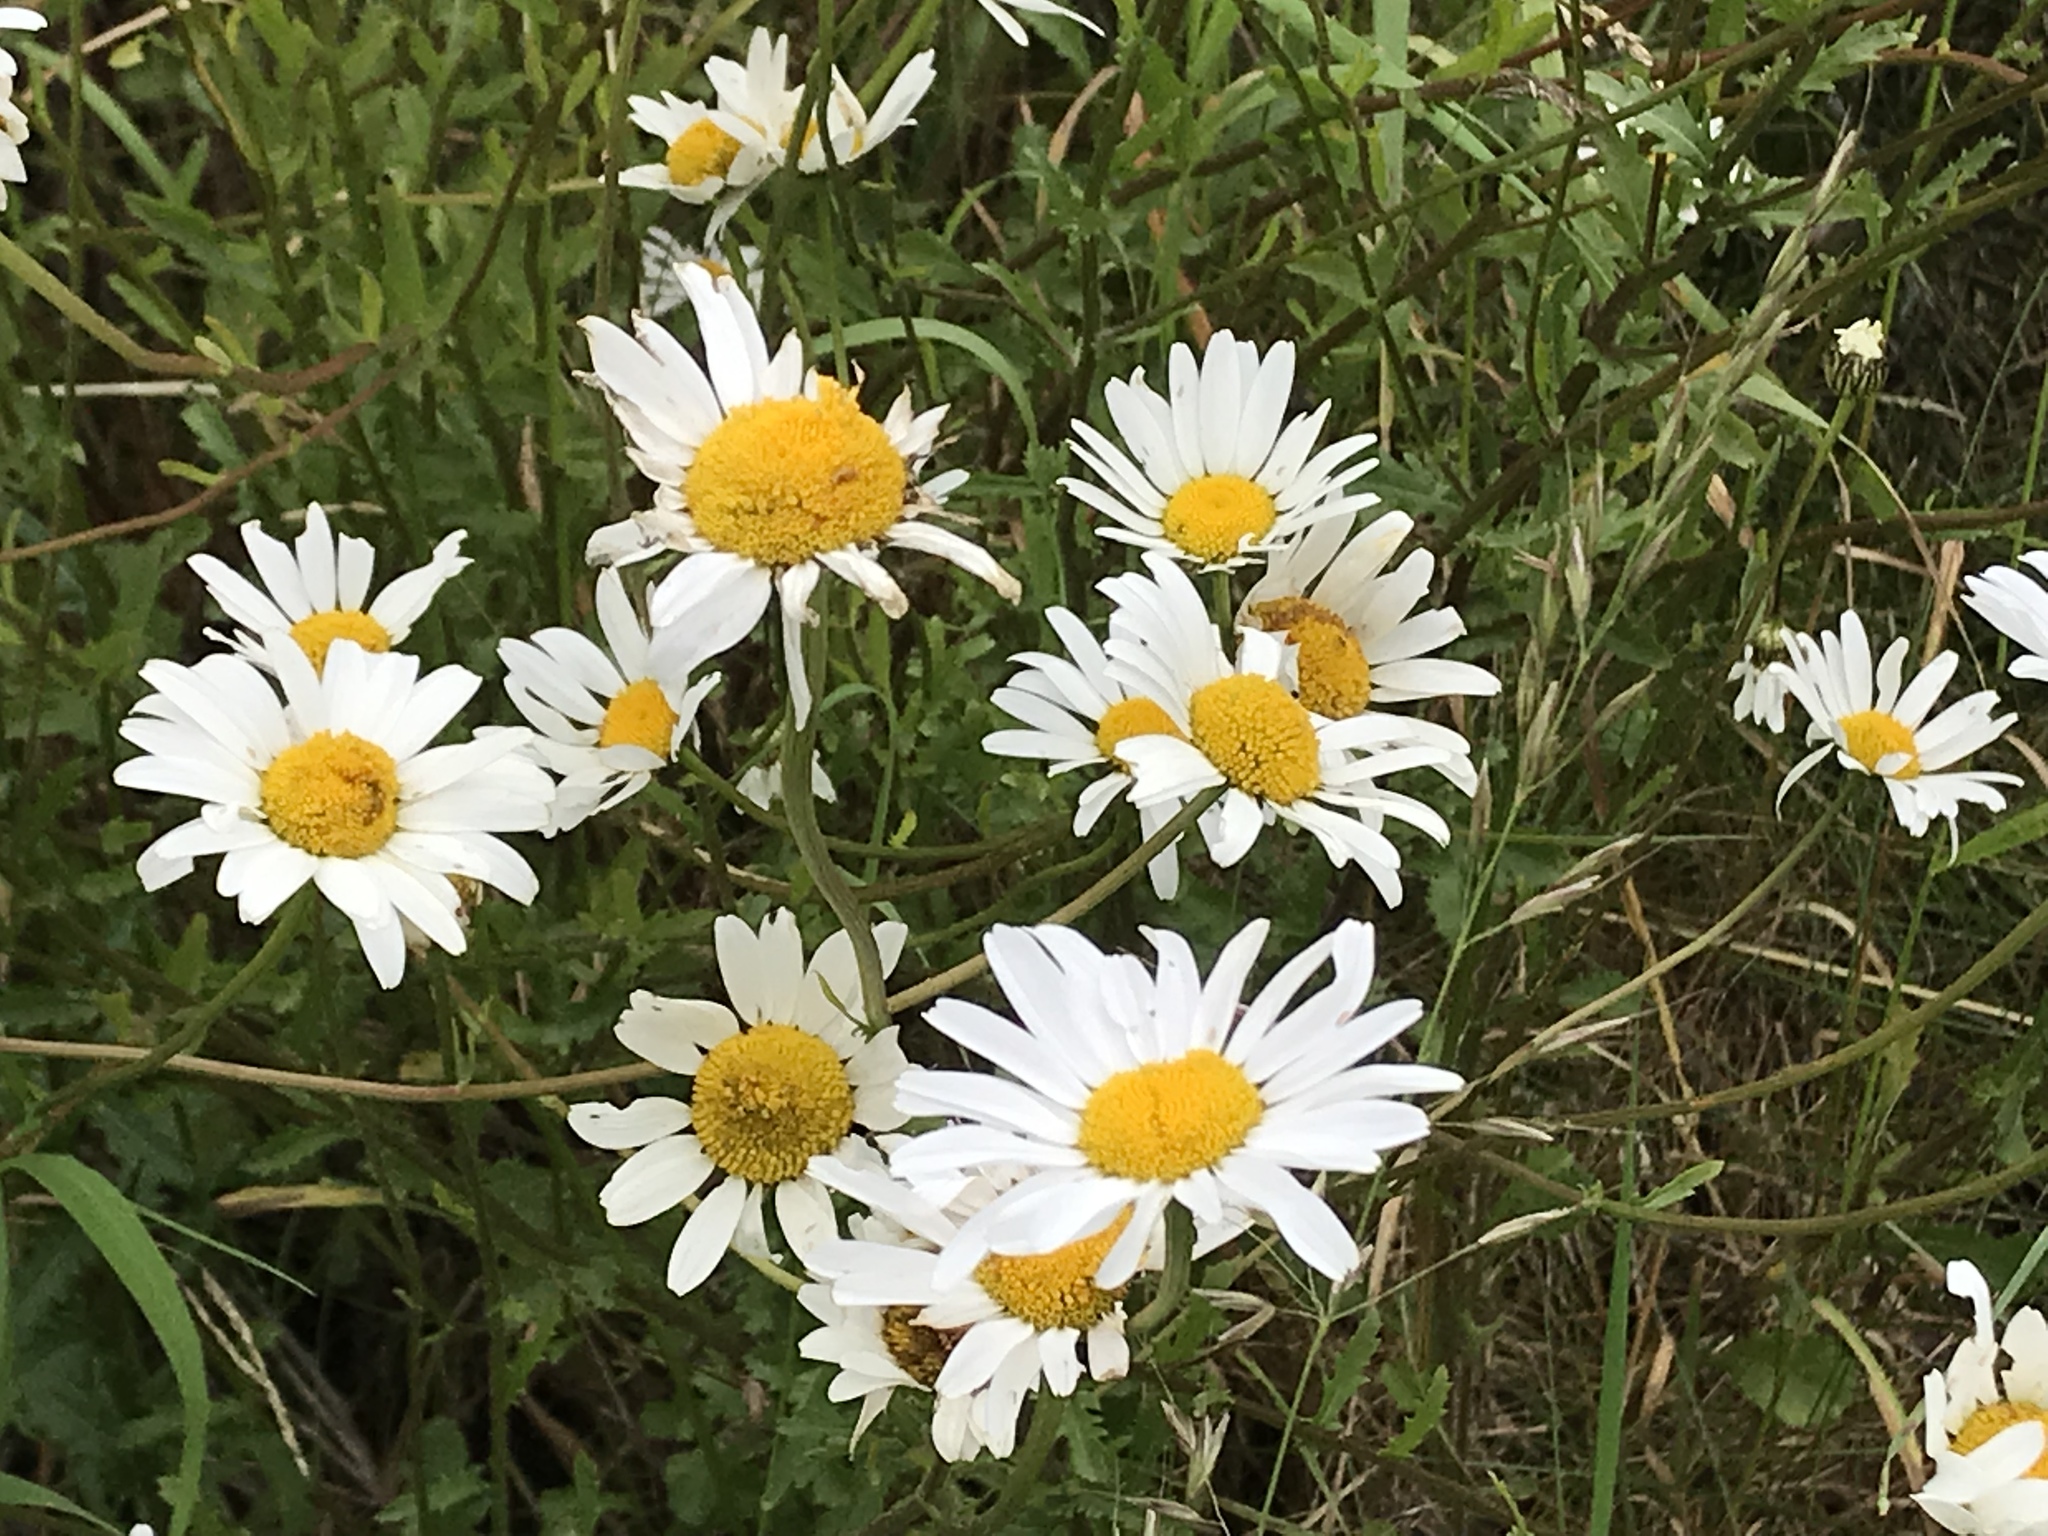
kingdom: Plantae
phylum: Tracheophyta
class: Magnoliopsida
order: Asterales
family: Asteraceae
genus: Leucanthemum
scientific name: Leucanthemum vulgare
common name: Oxeye daisy
